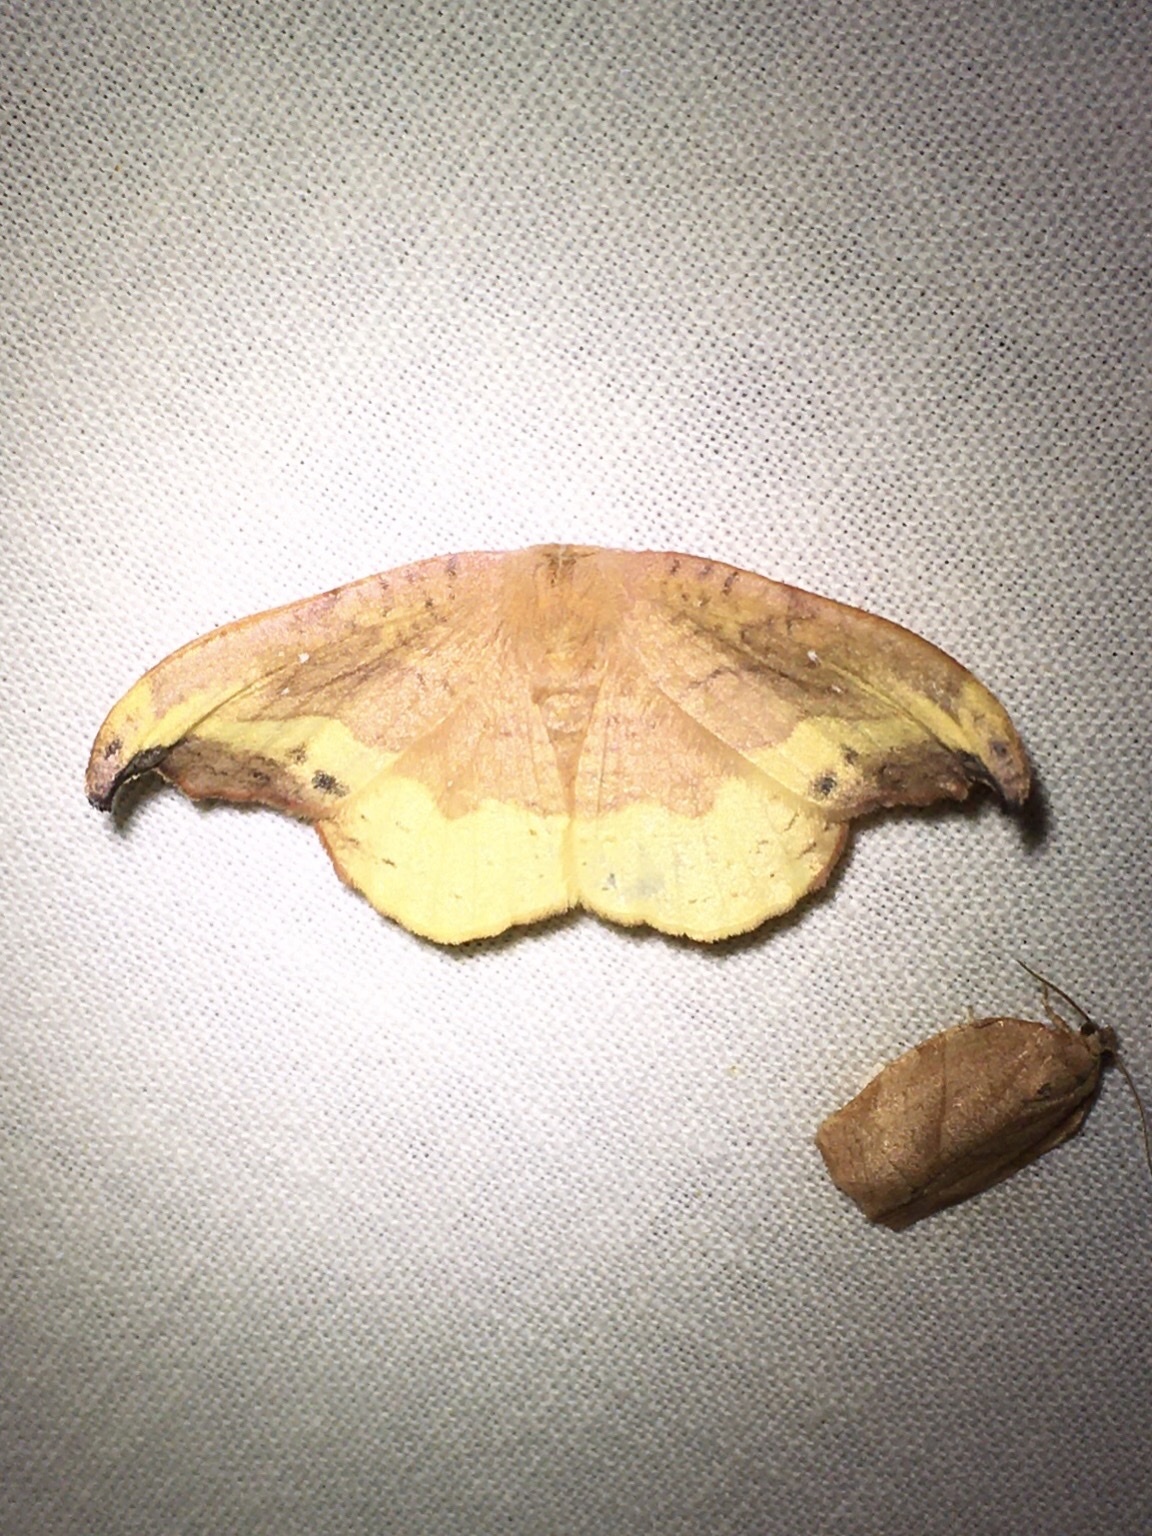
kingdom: Animalia
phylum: Arthropoda
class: Insecta
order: Lepidoptera
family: Drepanidae
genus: Oreta
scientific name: Oreta rosea
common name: Rose hooktip
